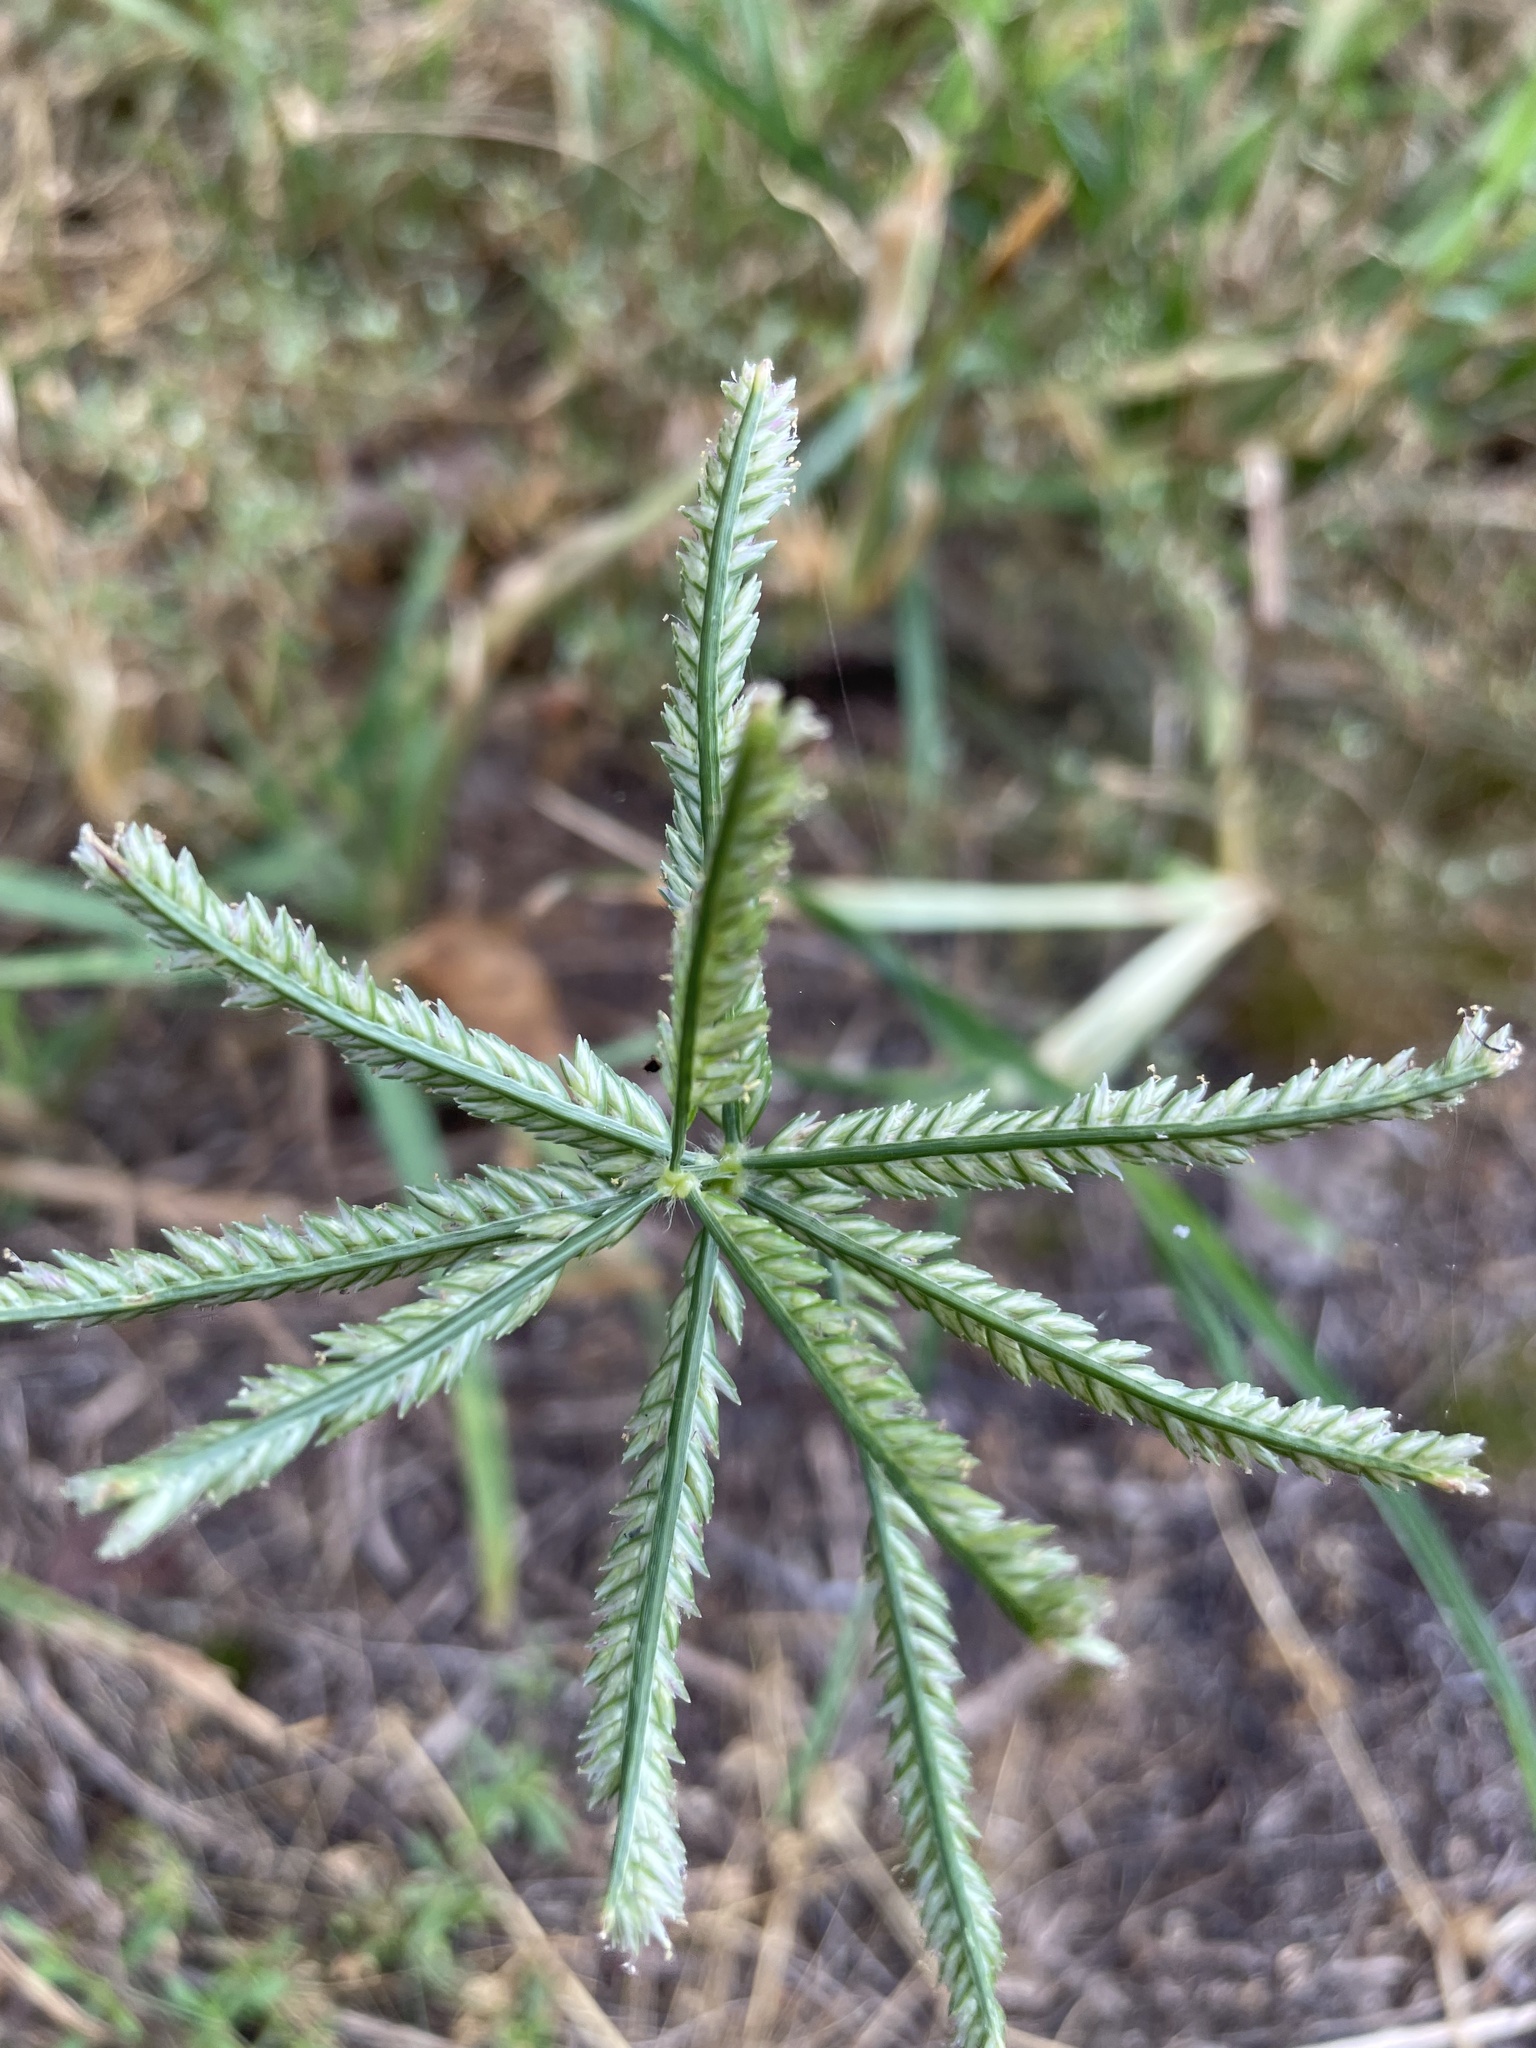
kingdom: Plantae
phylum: Tracheophyta
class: Liliopsida
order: Poales
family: Poaceae
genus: Eleusine
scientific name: Eleusine indica
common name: Yard-grass
